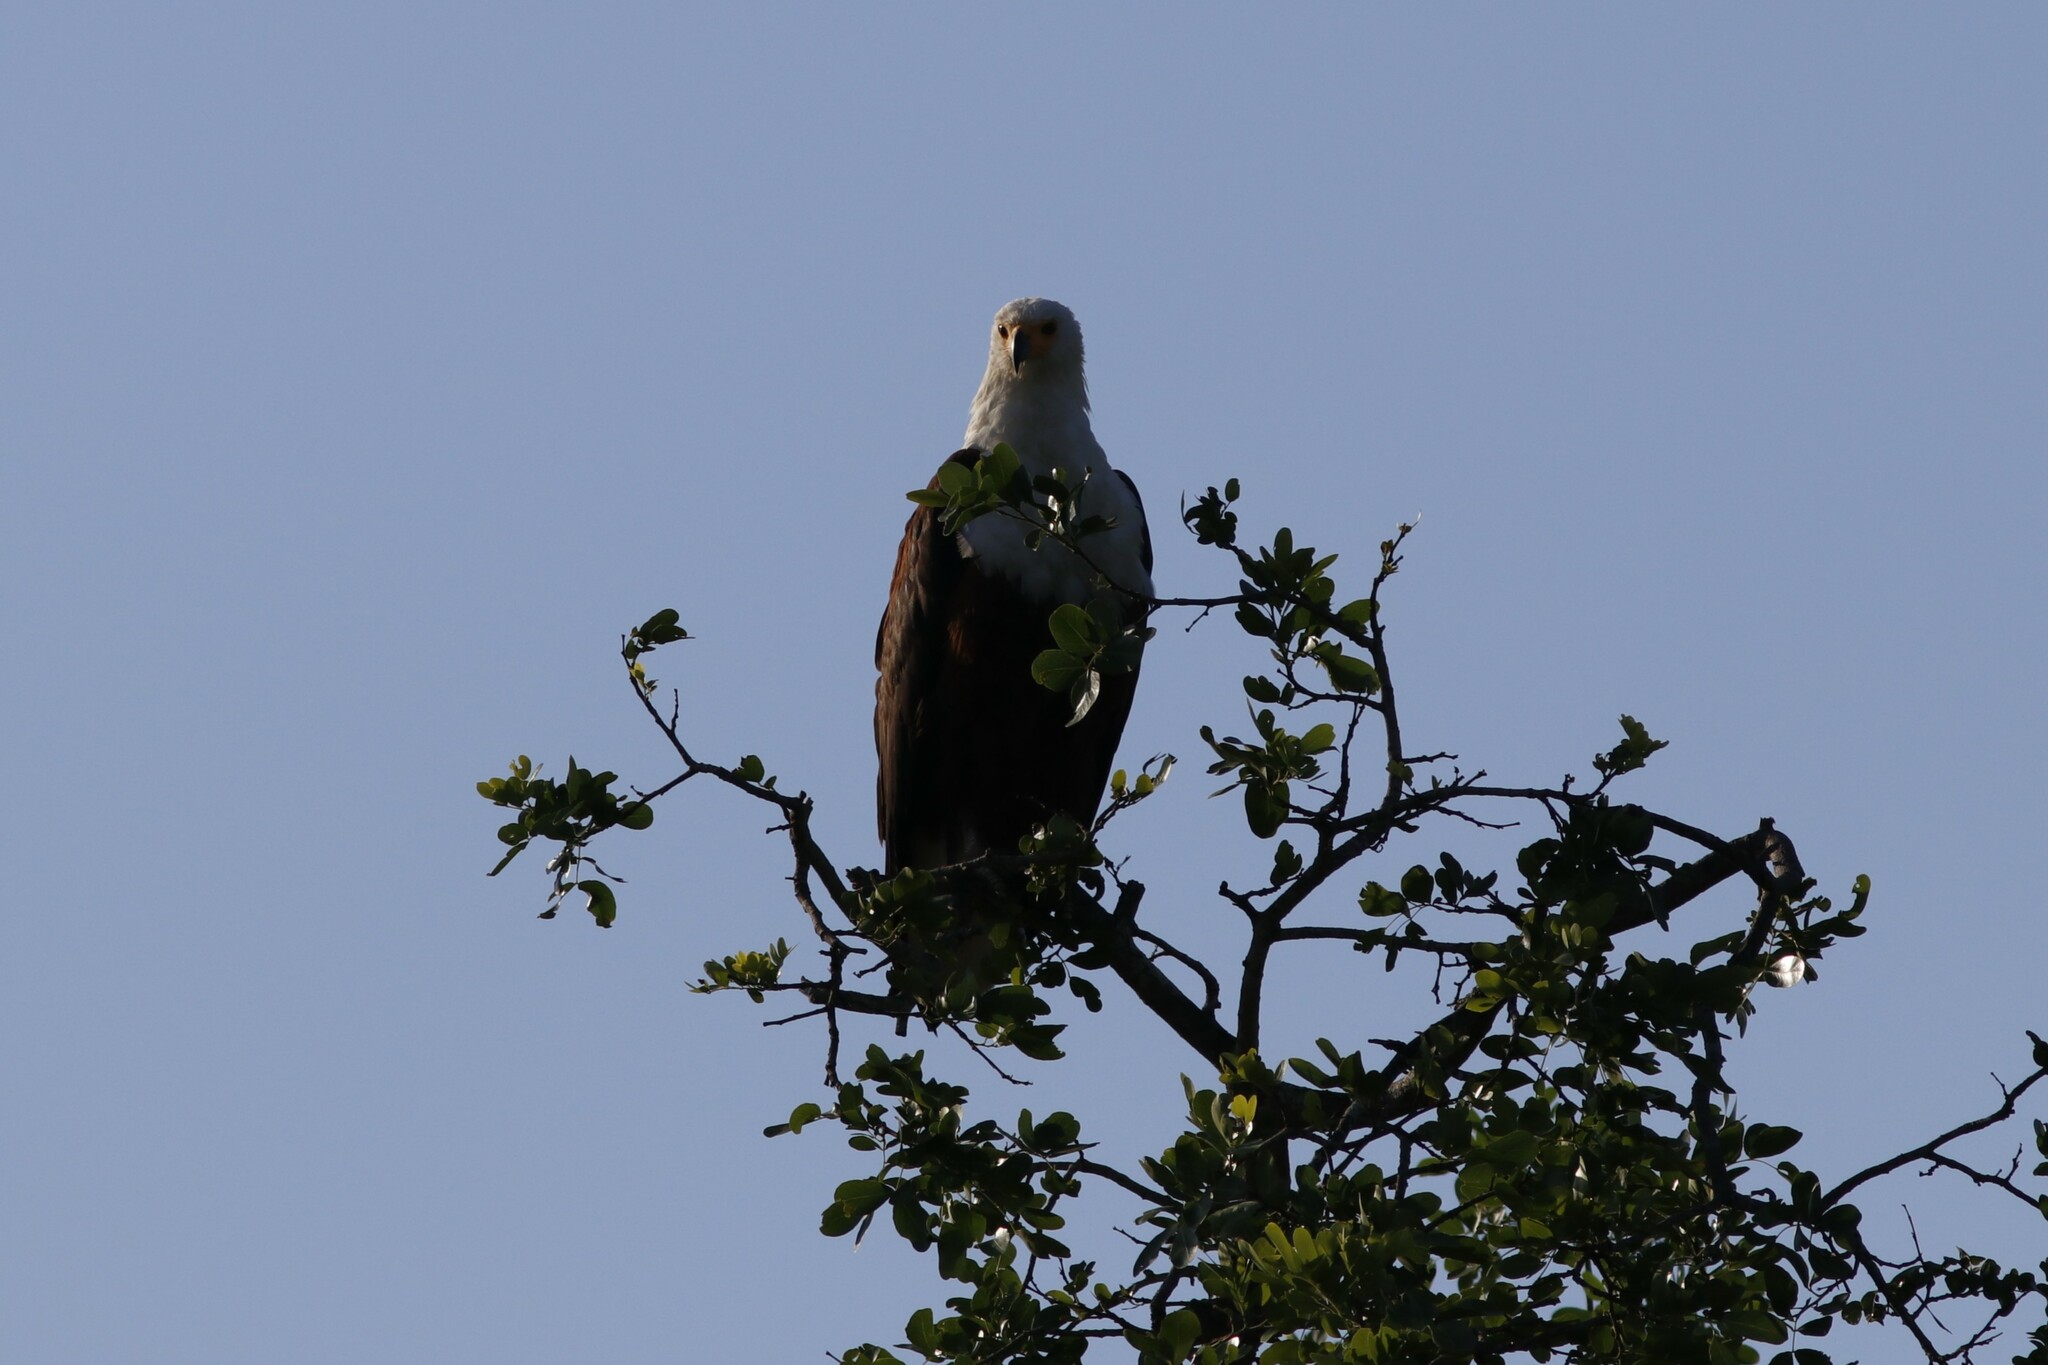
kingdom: Animalia
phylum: Chordata
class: Aves
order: Accipitriformes
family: Accipitridae
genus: Haliaeetus
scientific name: Haliaeetus vocifer
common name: African fish eagle
